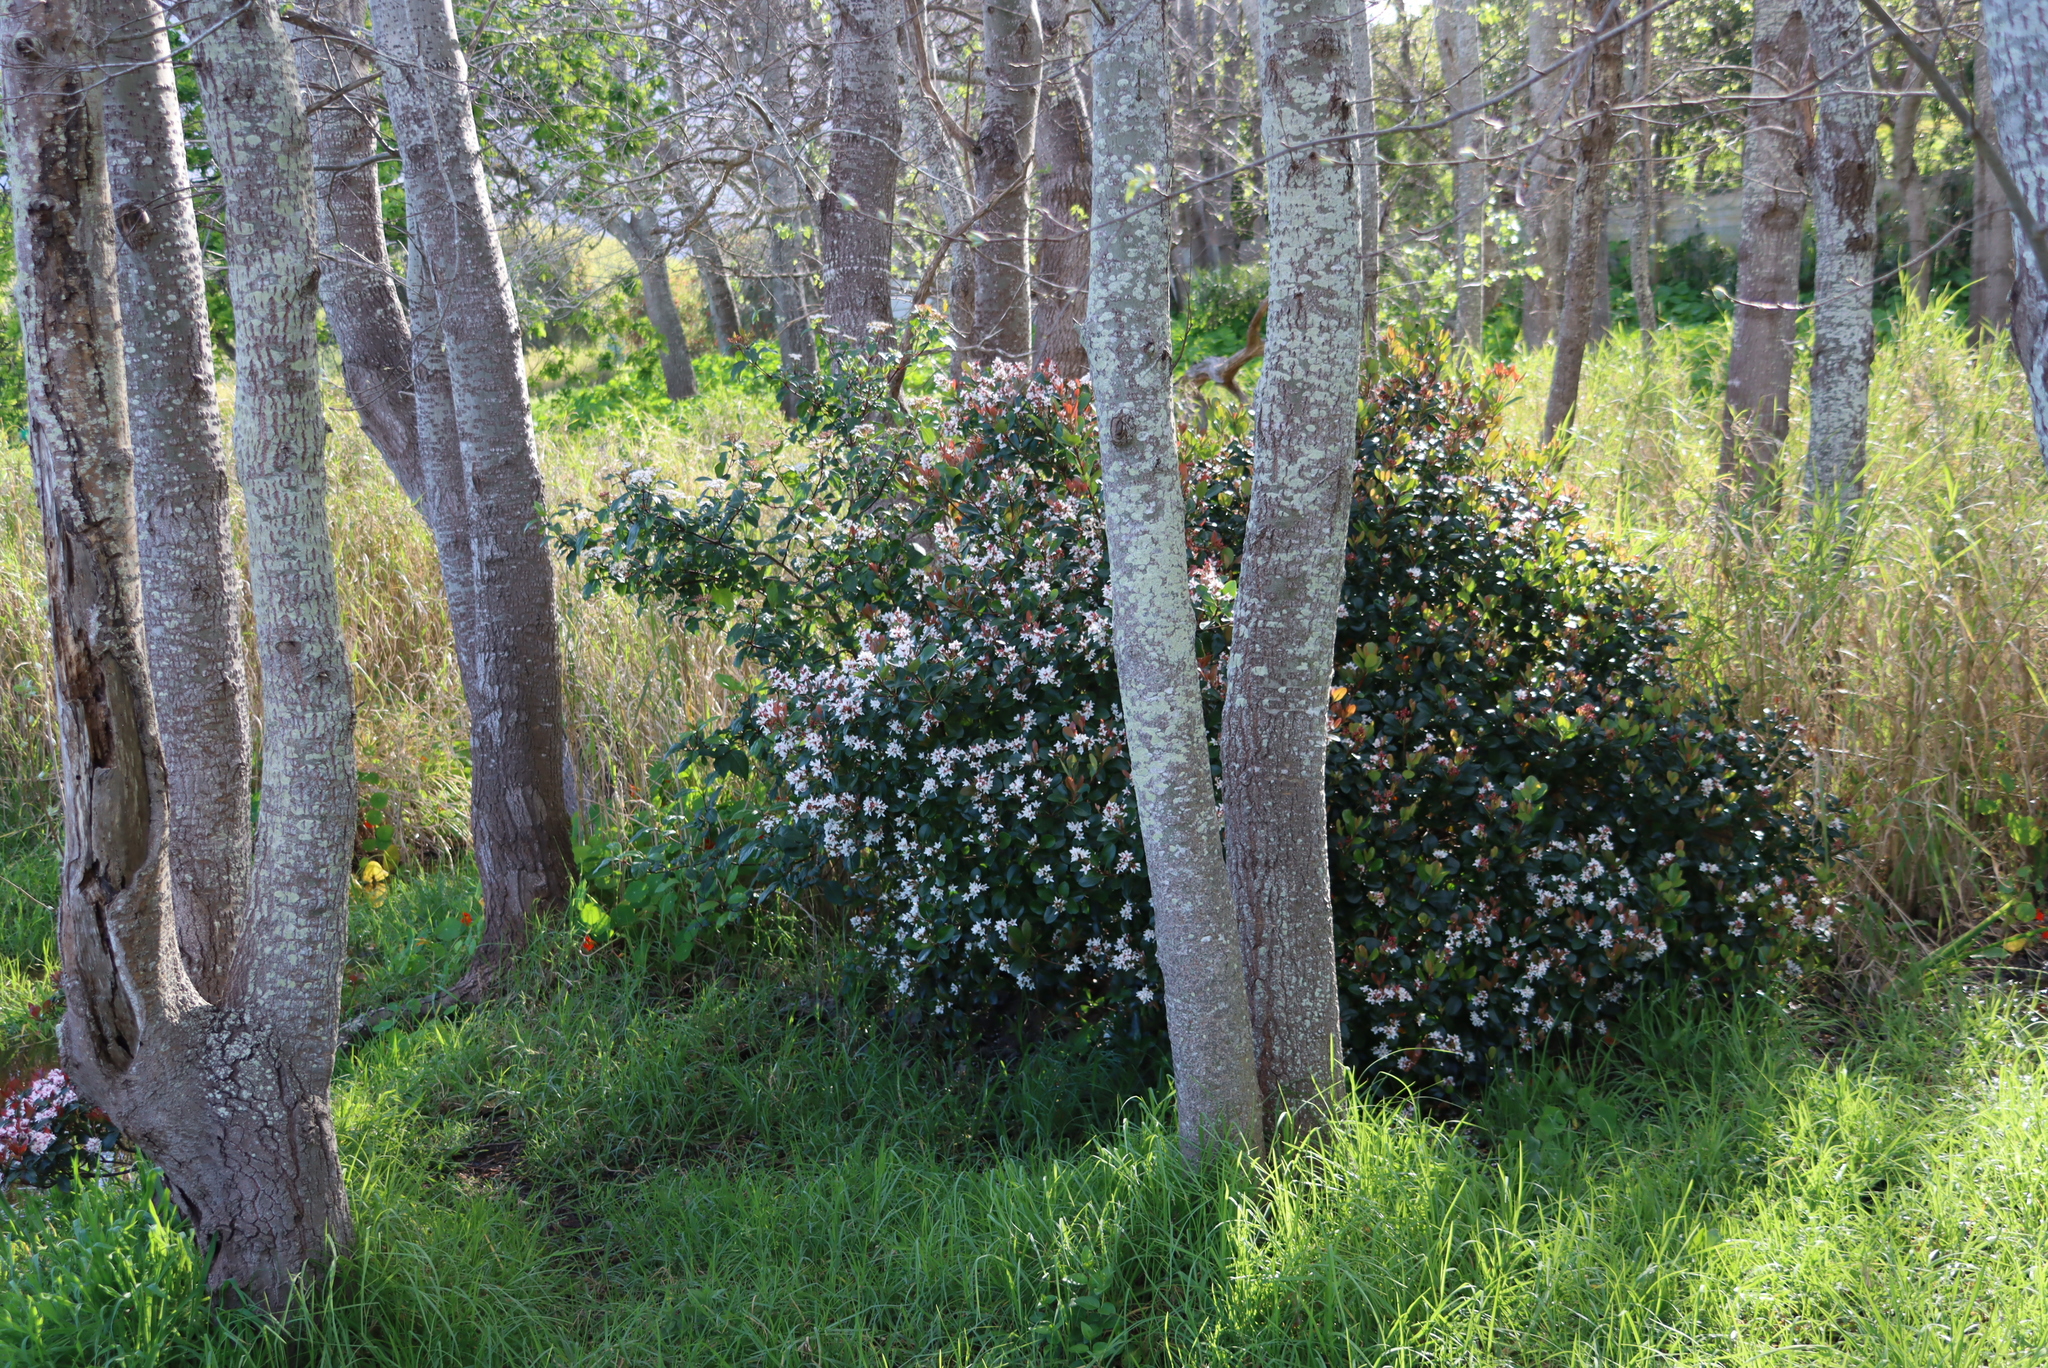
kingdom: Plantae
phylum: Tracheophyta
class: Magnoliopsida
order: Dipsacales
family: Viburnaceae
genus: Viburnum
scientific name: Viburnum tinus
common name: Laurustinus
